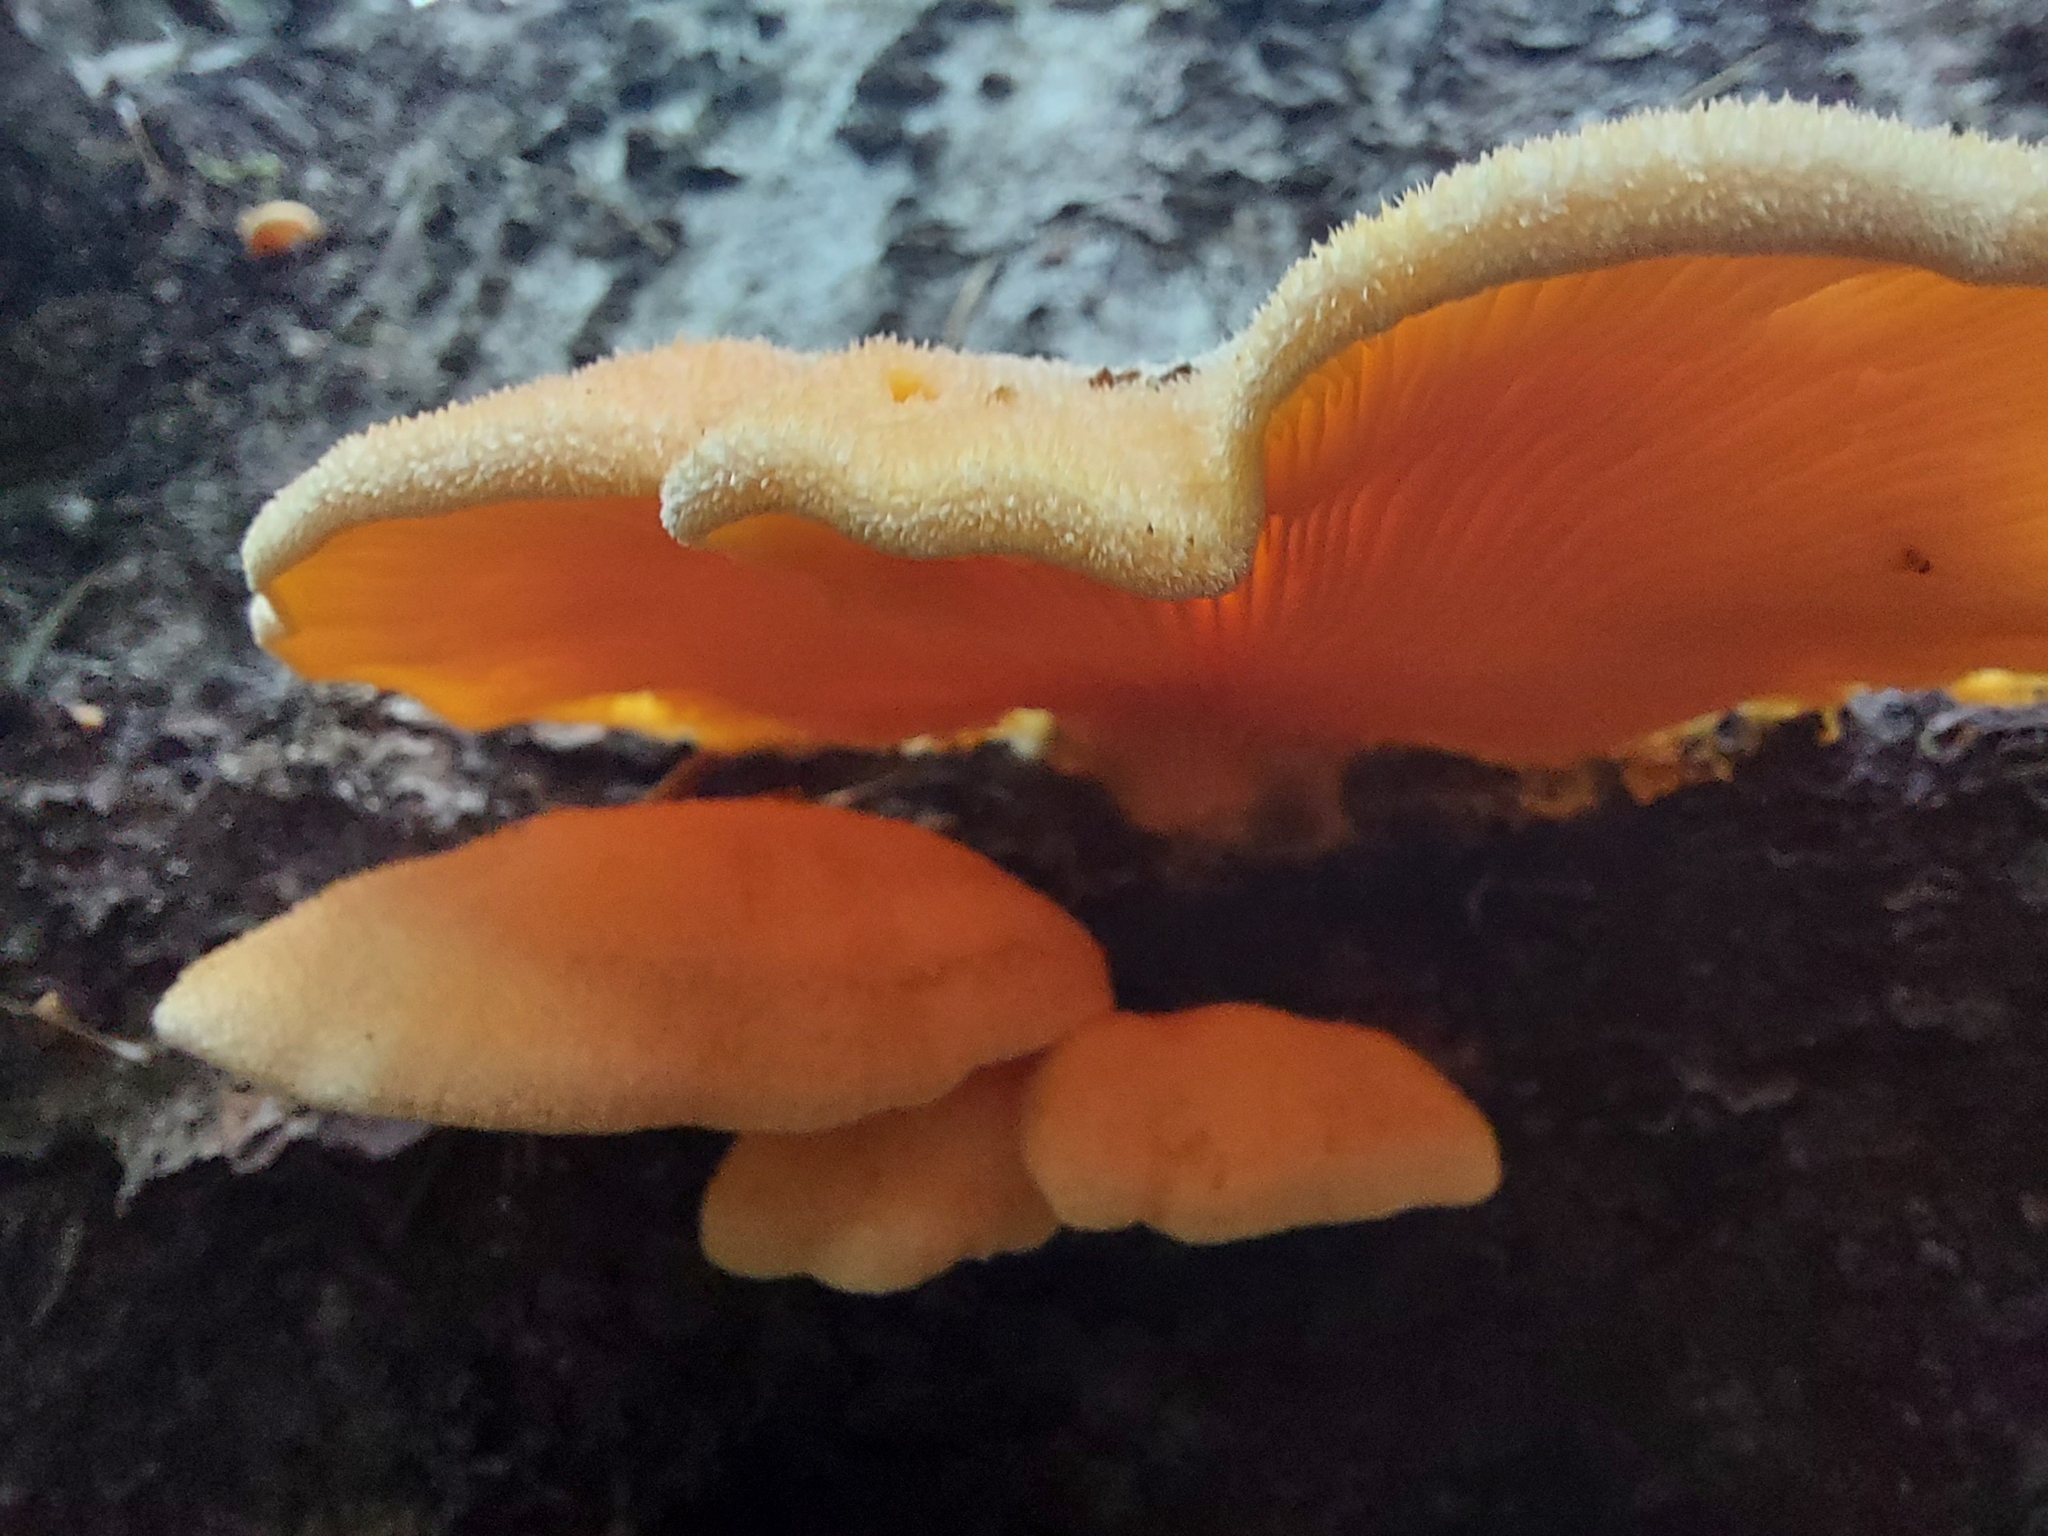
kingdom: Fungi
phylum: Basidiomycota
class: Agaricomycetes
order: Agaricales
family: Phyllotopsidaceae
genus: Phyllotopsis
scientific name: Phyllotopsis nidulans
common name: Orange mock oyster
